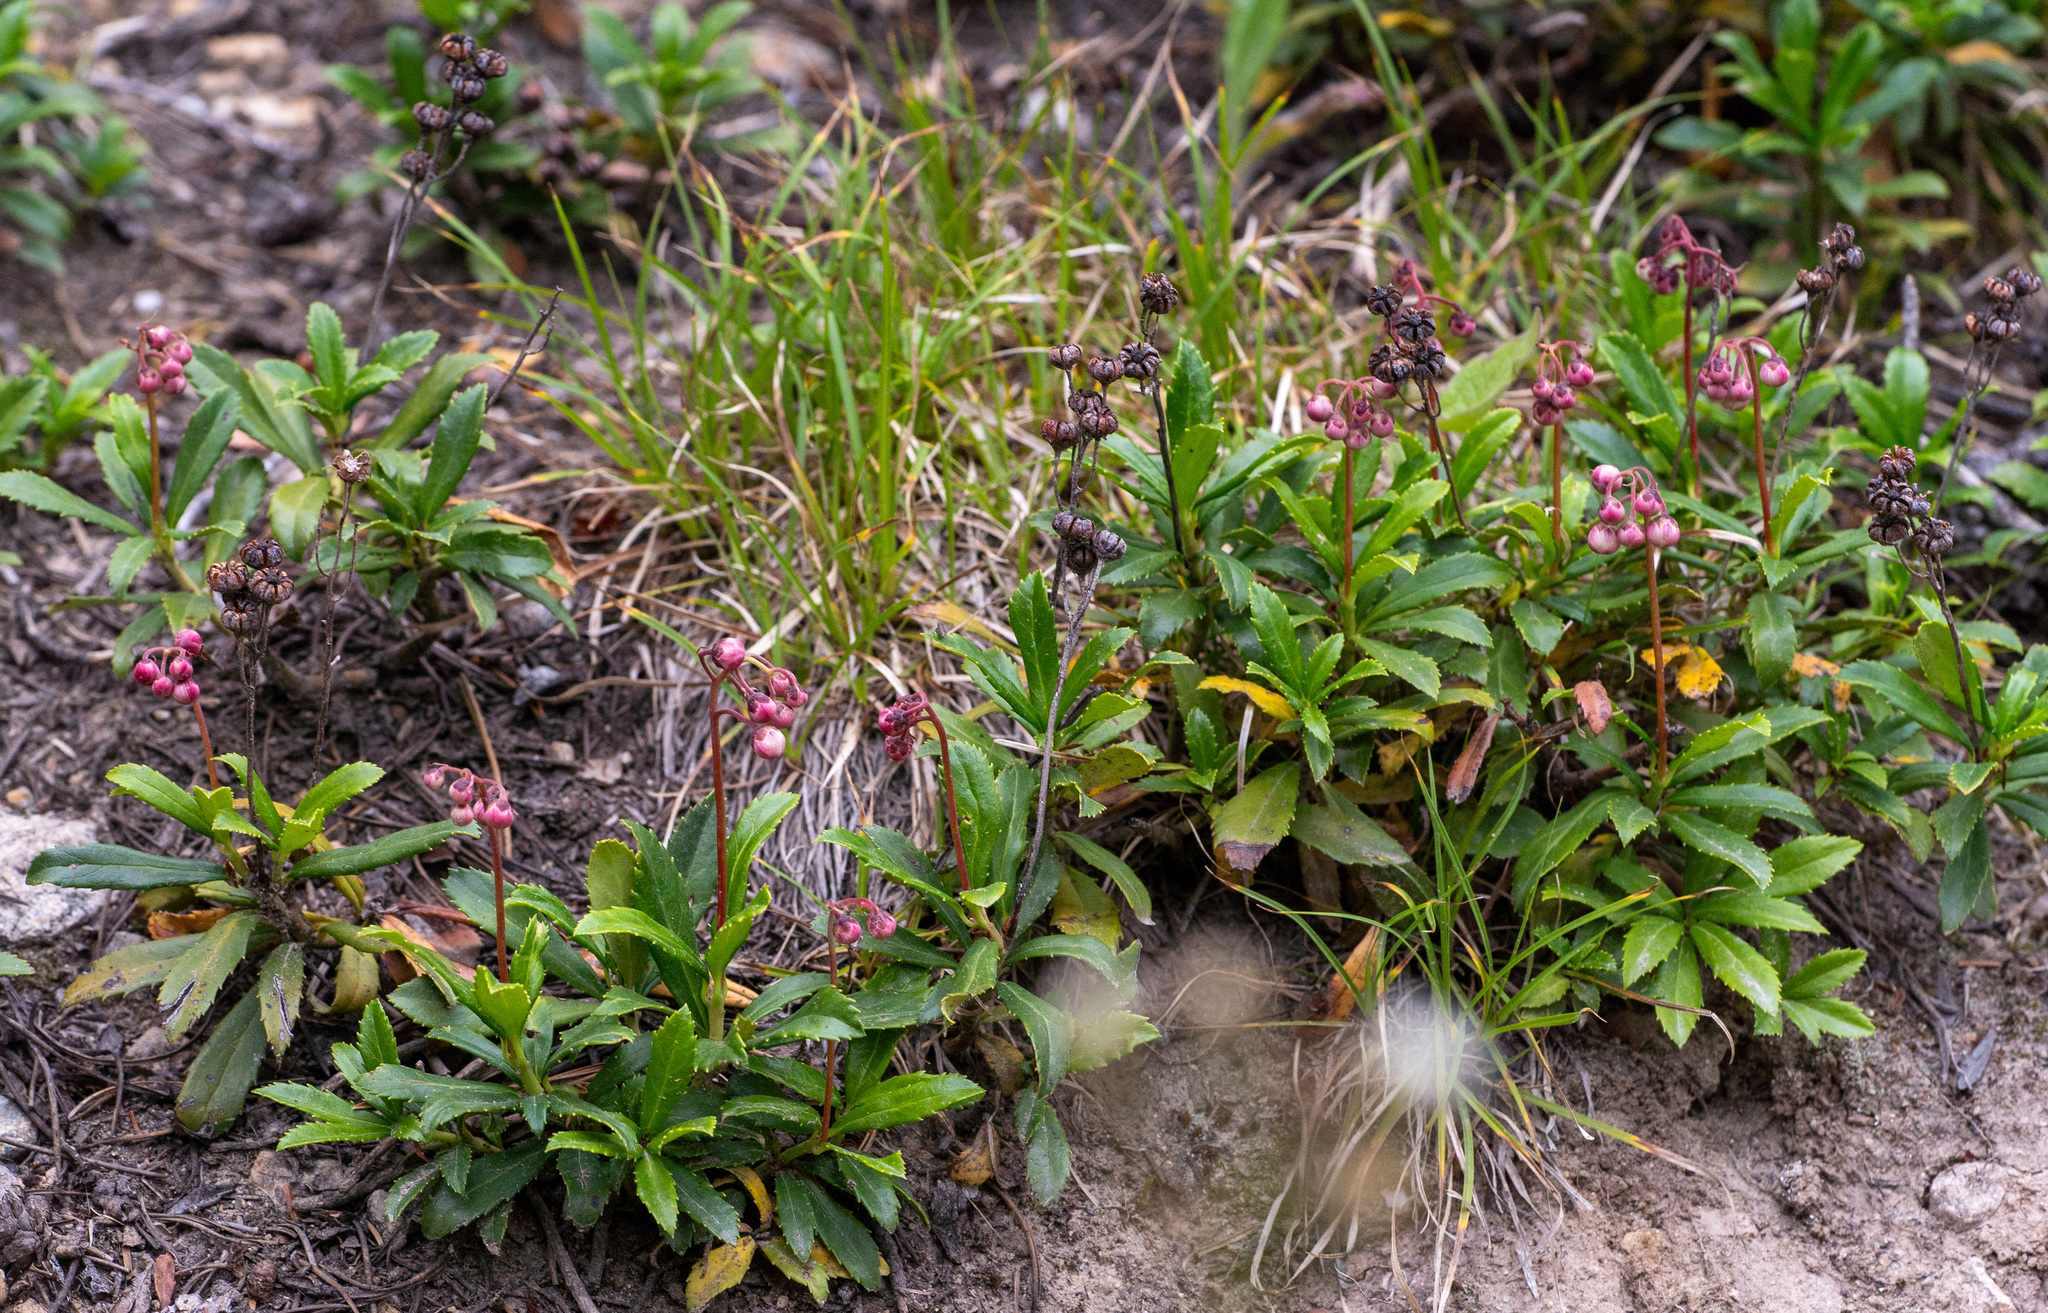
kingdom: Plantae
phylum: Tracheophyta
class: Magnoliopsida
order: Ericales
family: Ericaceae
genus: Chimaphila
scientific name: Chimaphila umbellata
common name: Pipsissewa
